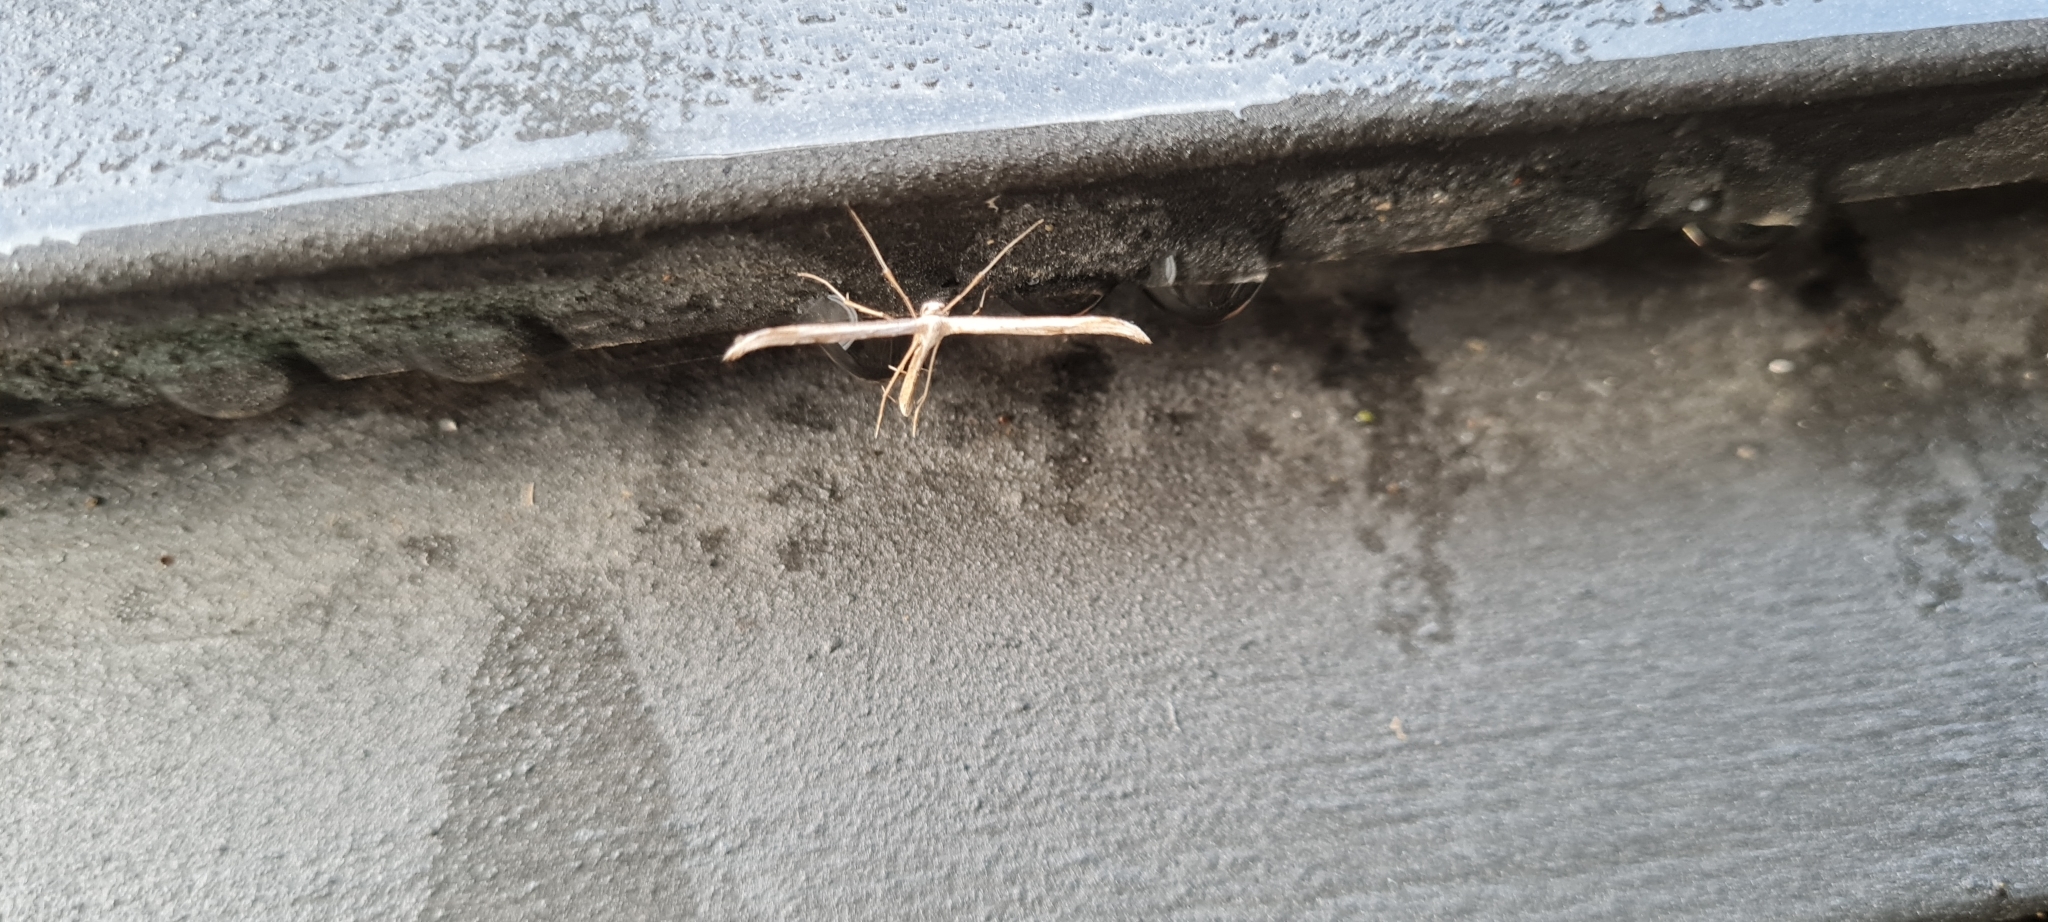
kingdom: Animalia
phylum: Arthropoda
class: Insecta
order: Lepidoptera
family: Pterophoridae
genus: Emmelina
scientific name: Emmelina monodactyla
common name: Common plume
